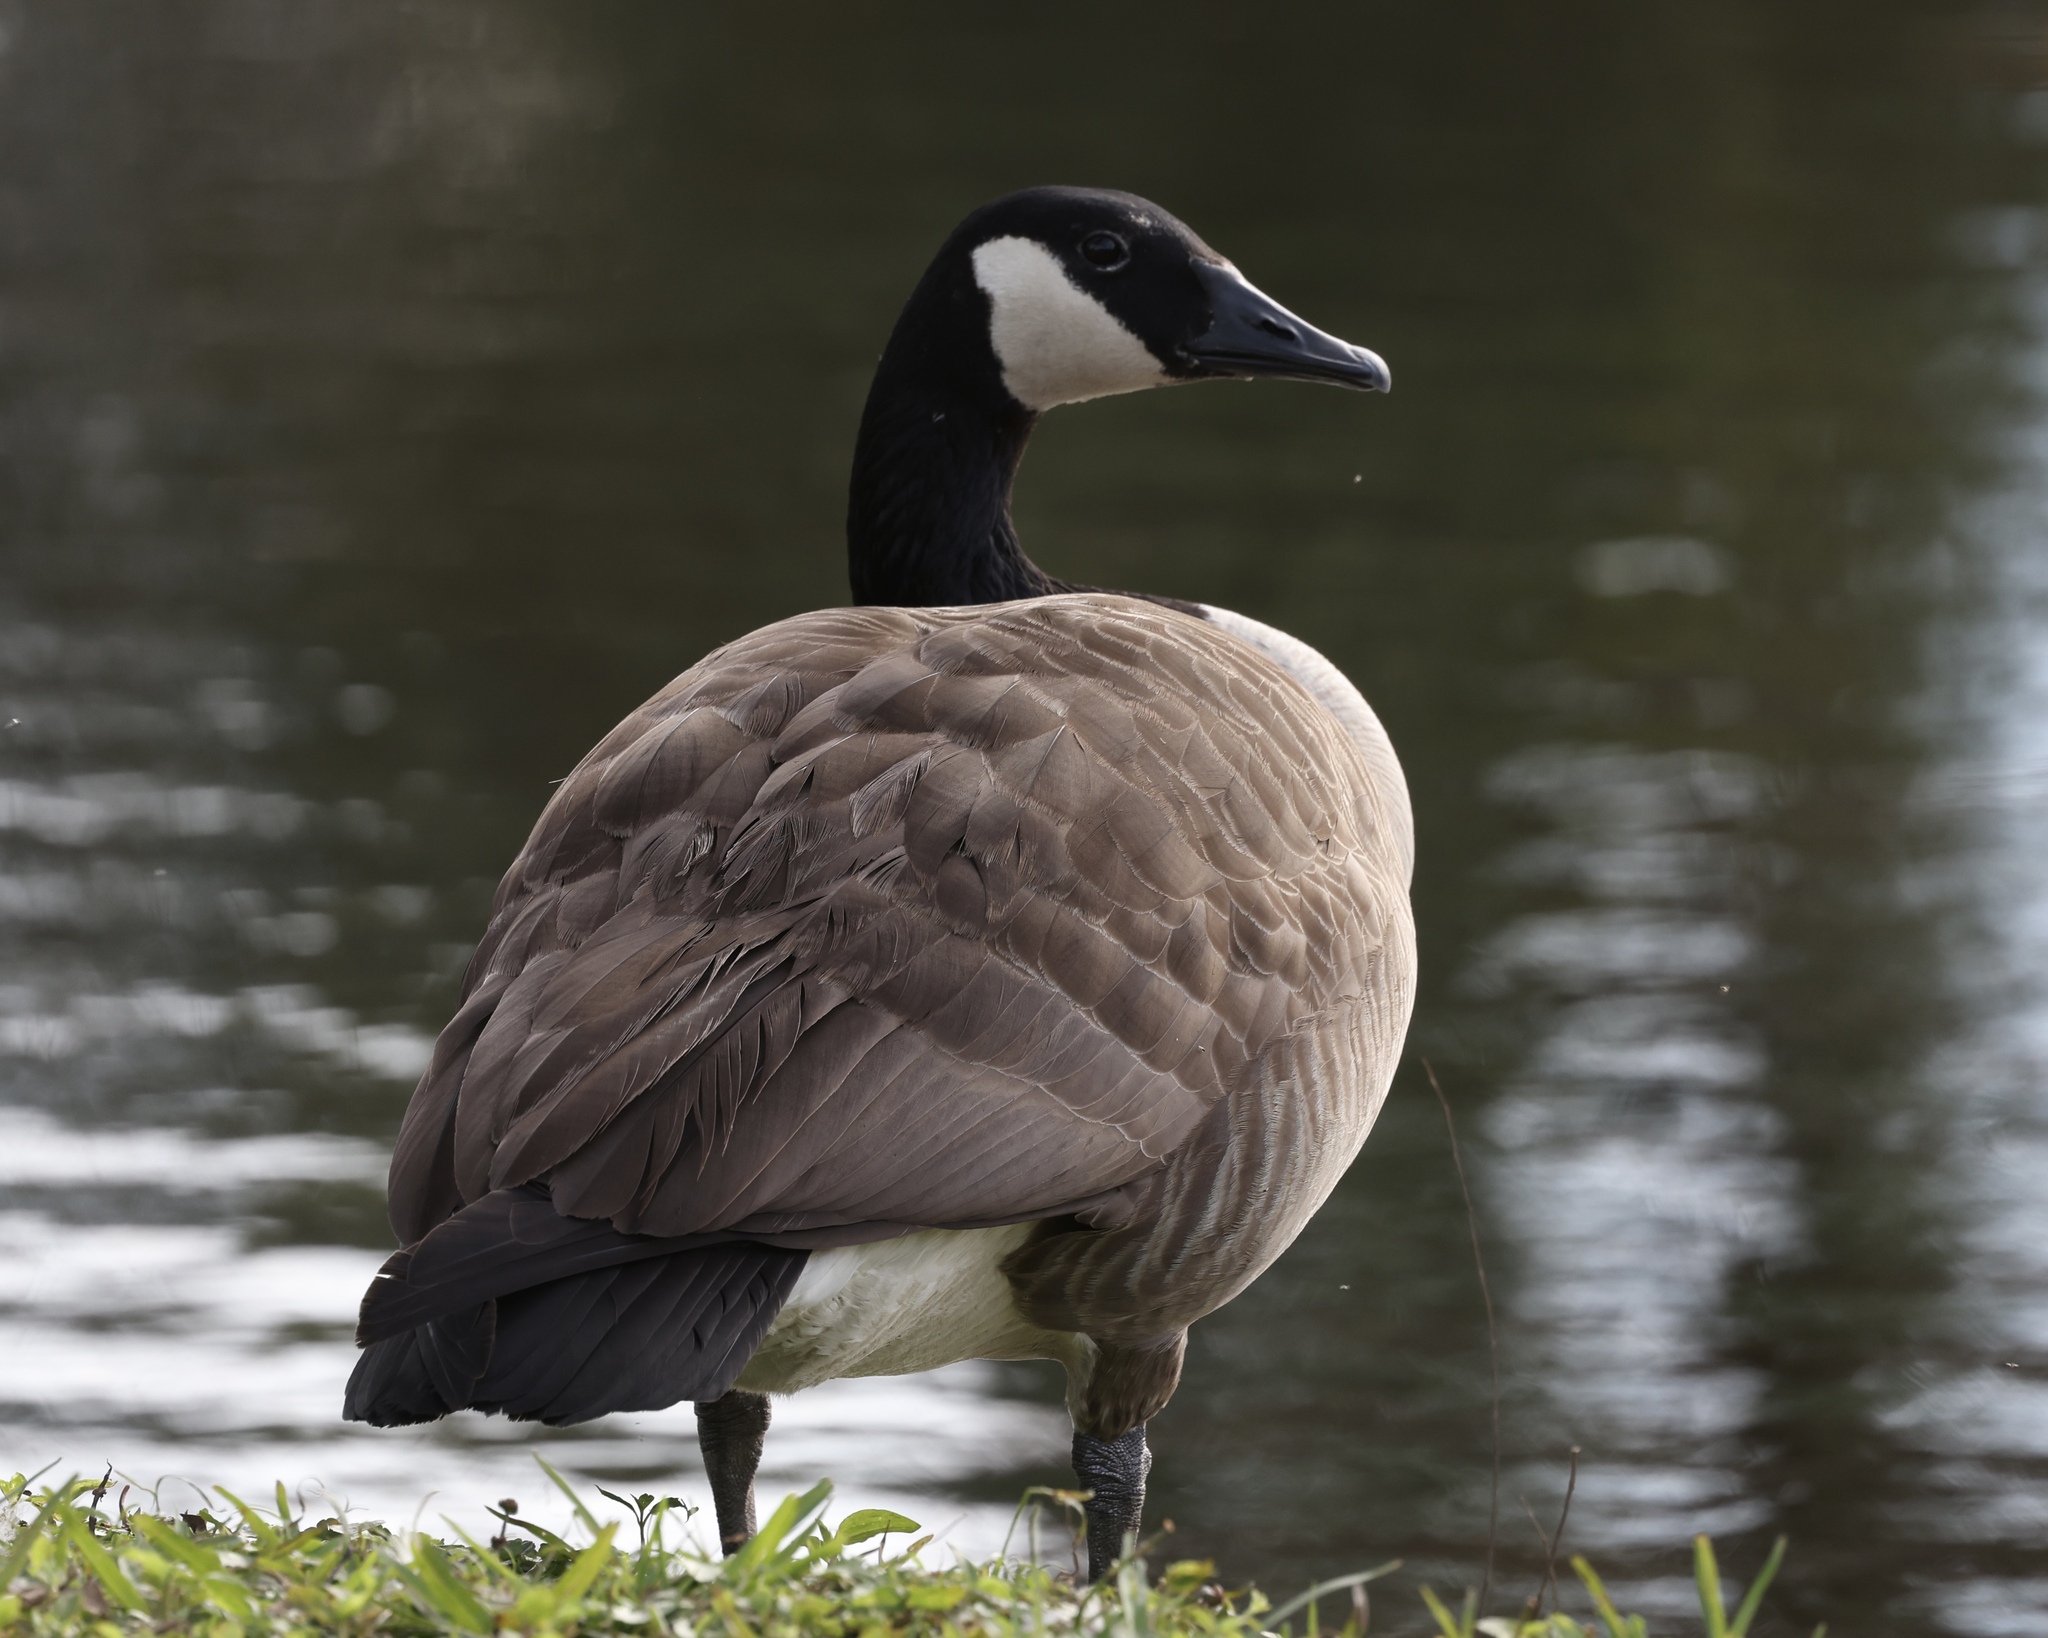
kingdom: Animalia
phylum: Chordata
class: Aves
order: Anseriformes
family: Anatidae
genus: Branta
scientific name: Branta canadensis
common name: Canada goose
